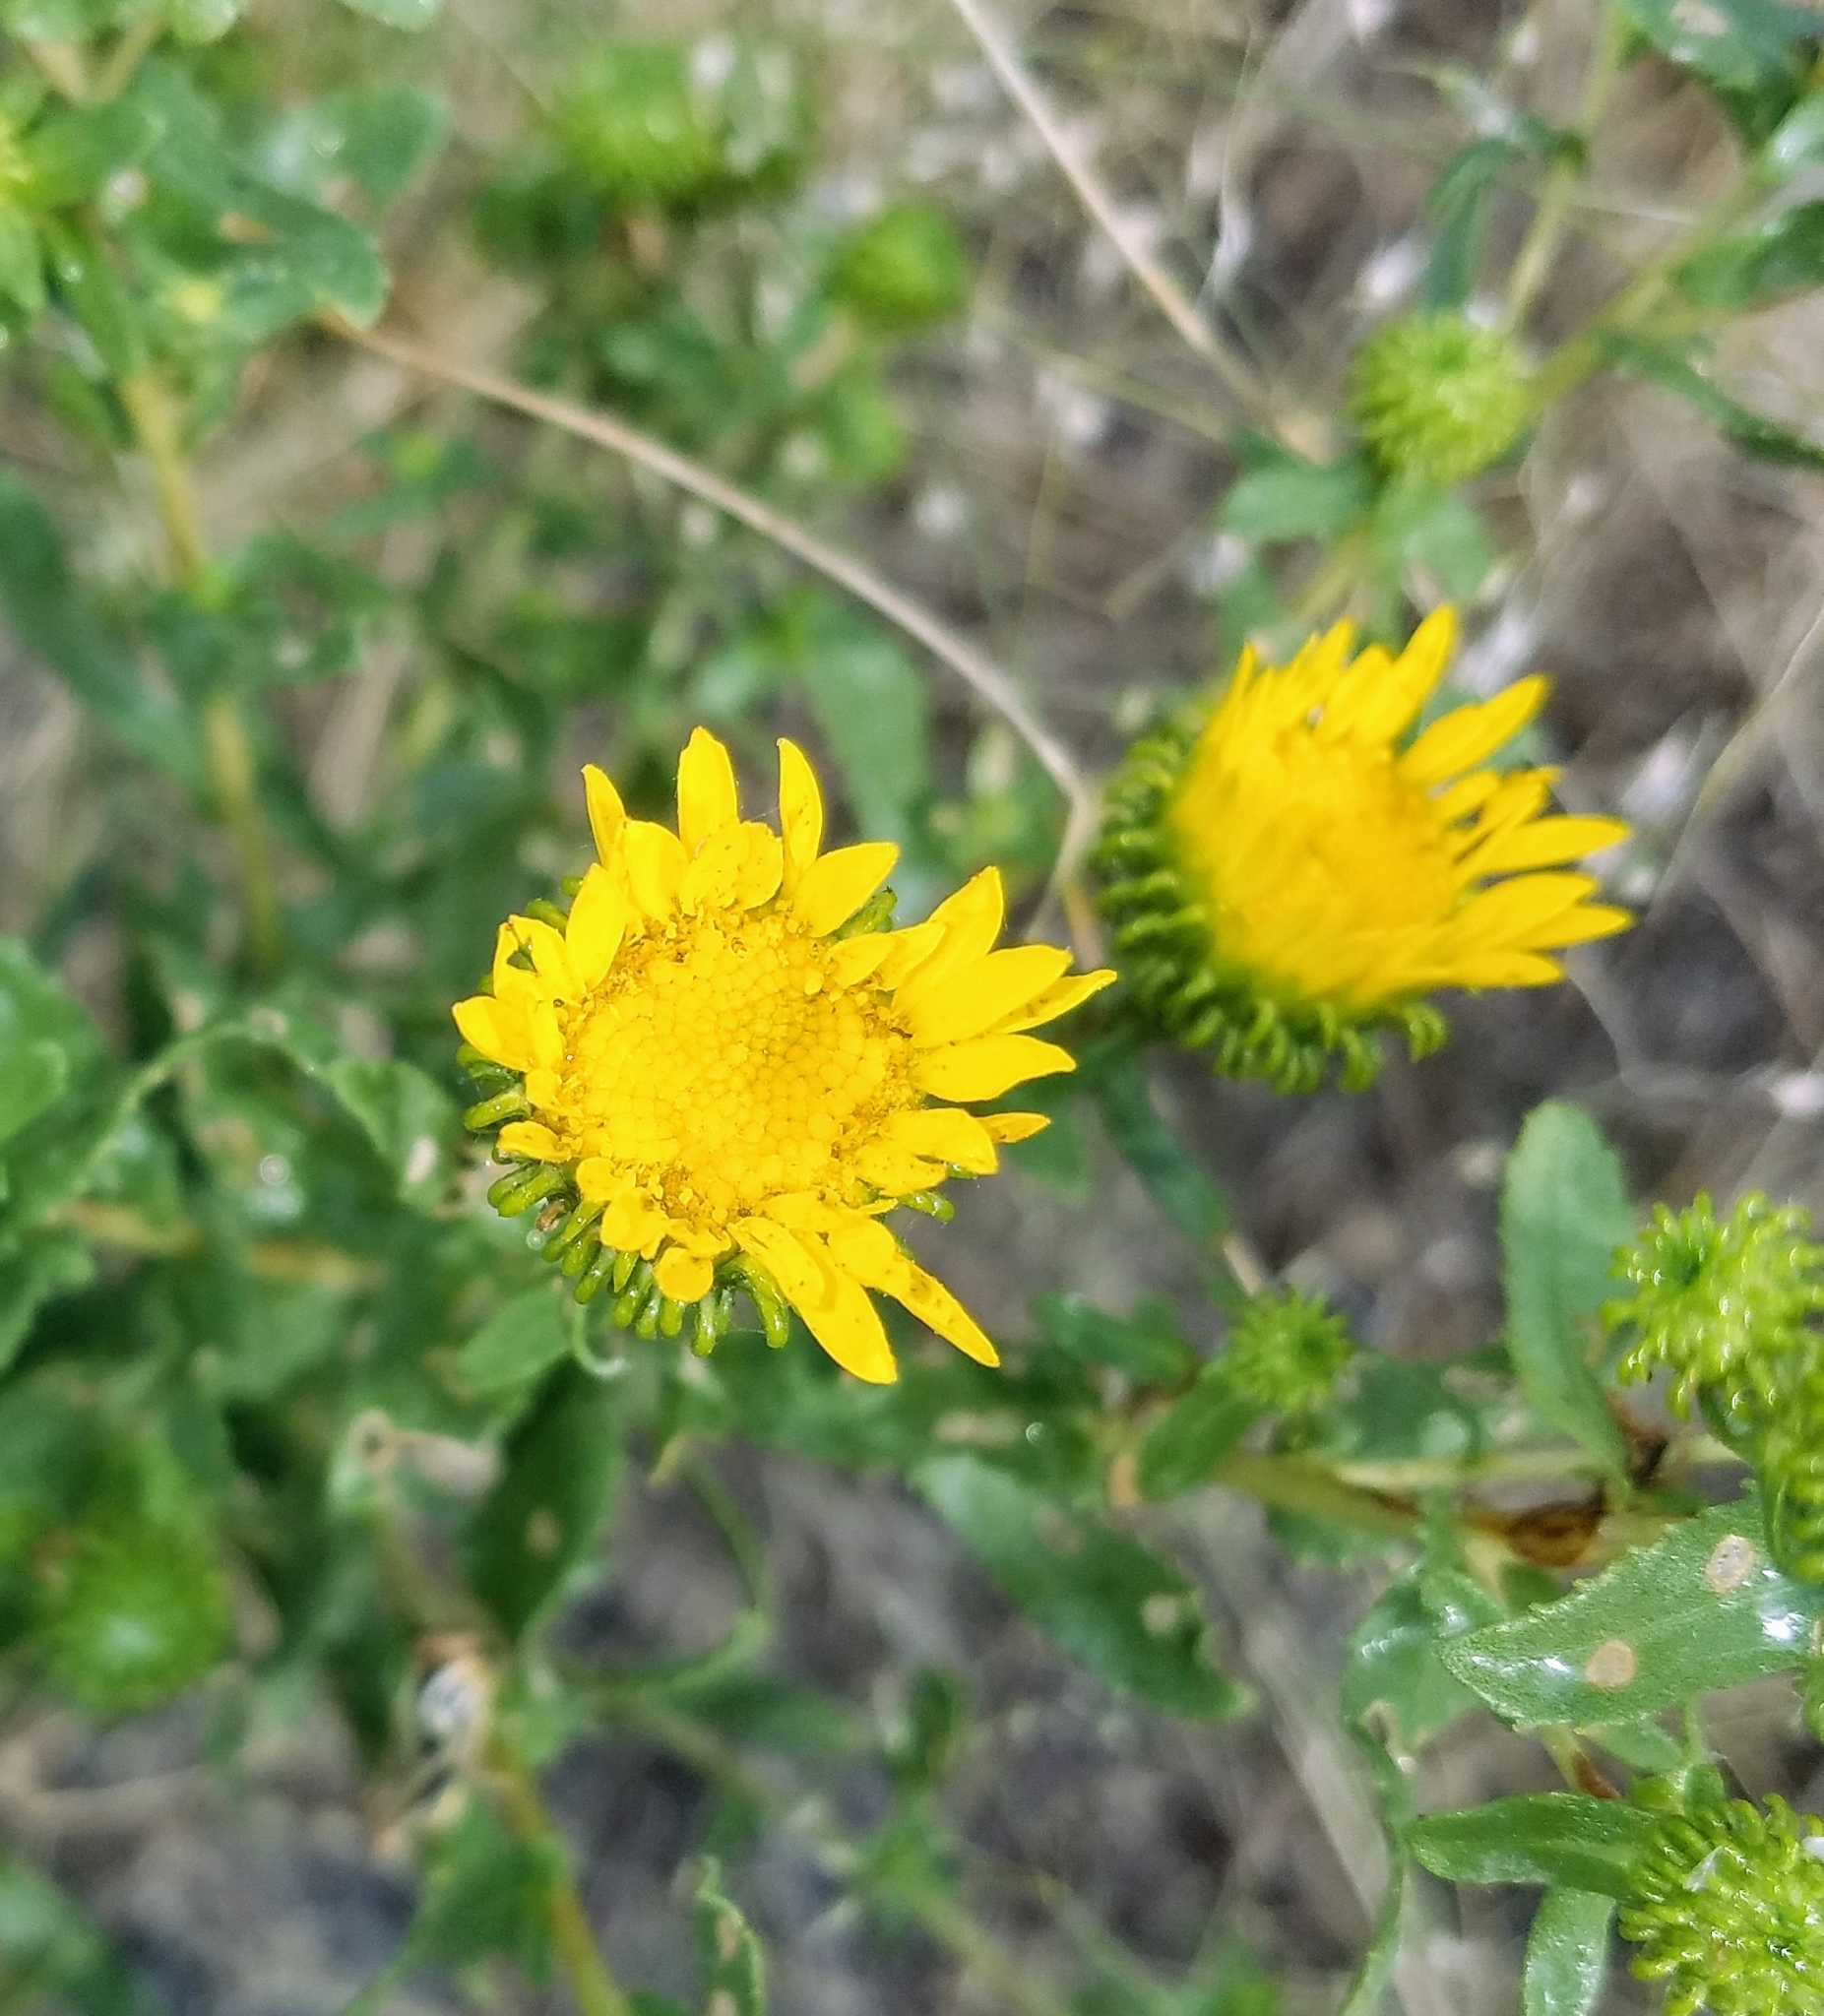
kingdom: Plantae
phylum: Tracheophyta
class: Magnoliopsida
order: Asterales
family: Asteraceae
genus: Grindelia
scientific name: Grindelia squarrosa
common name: Curly-cup gumweed
